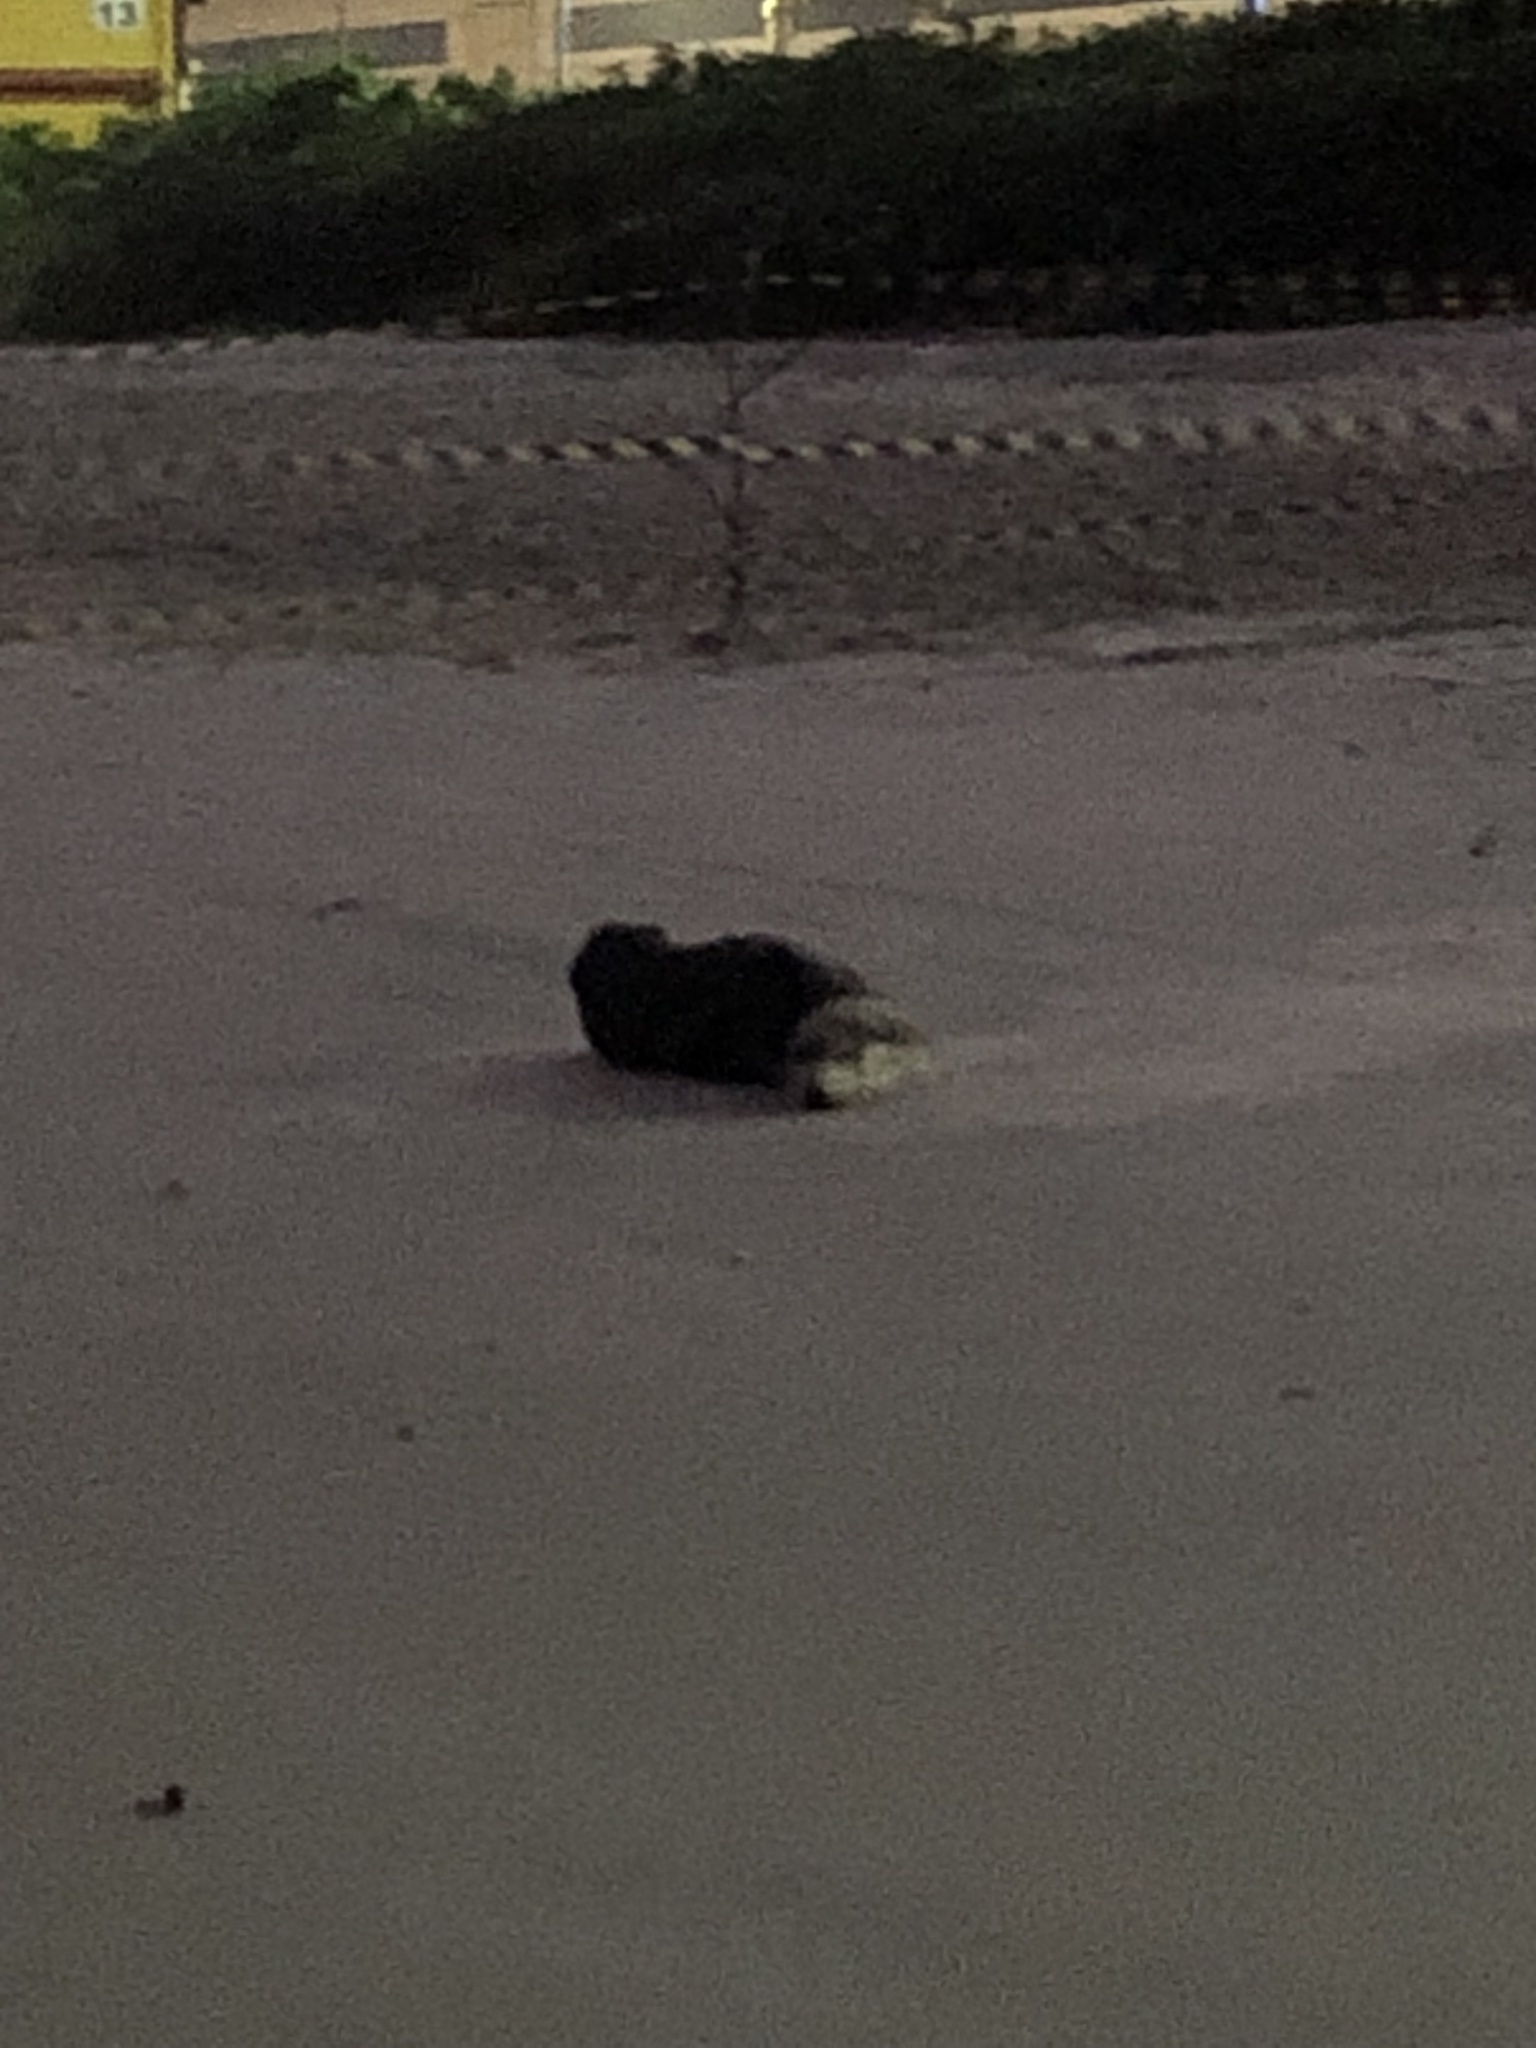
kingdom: Animalia
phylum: Chordata
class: Mammalia
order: Carnivora
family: Otariidae
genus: Arctocephalus
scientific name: Arctocephalus tropicalis
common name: Subantarctic fur seal
